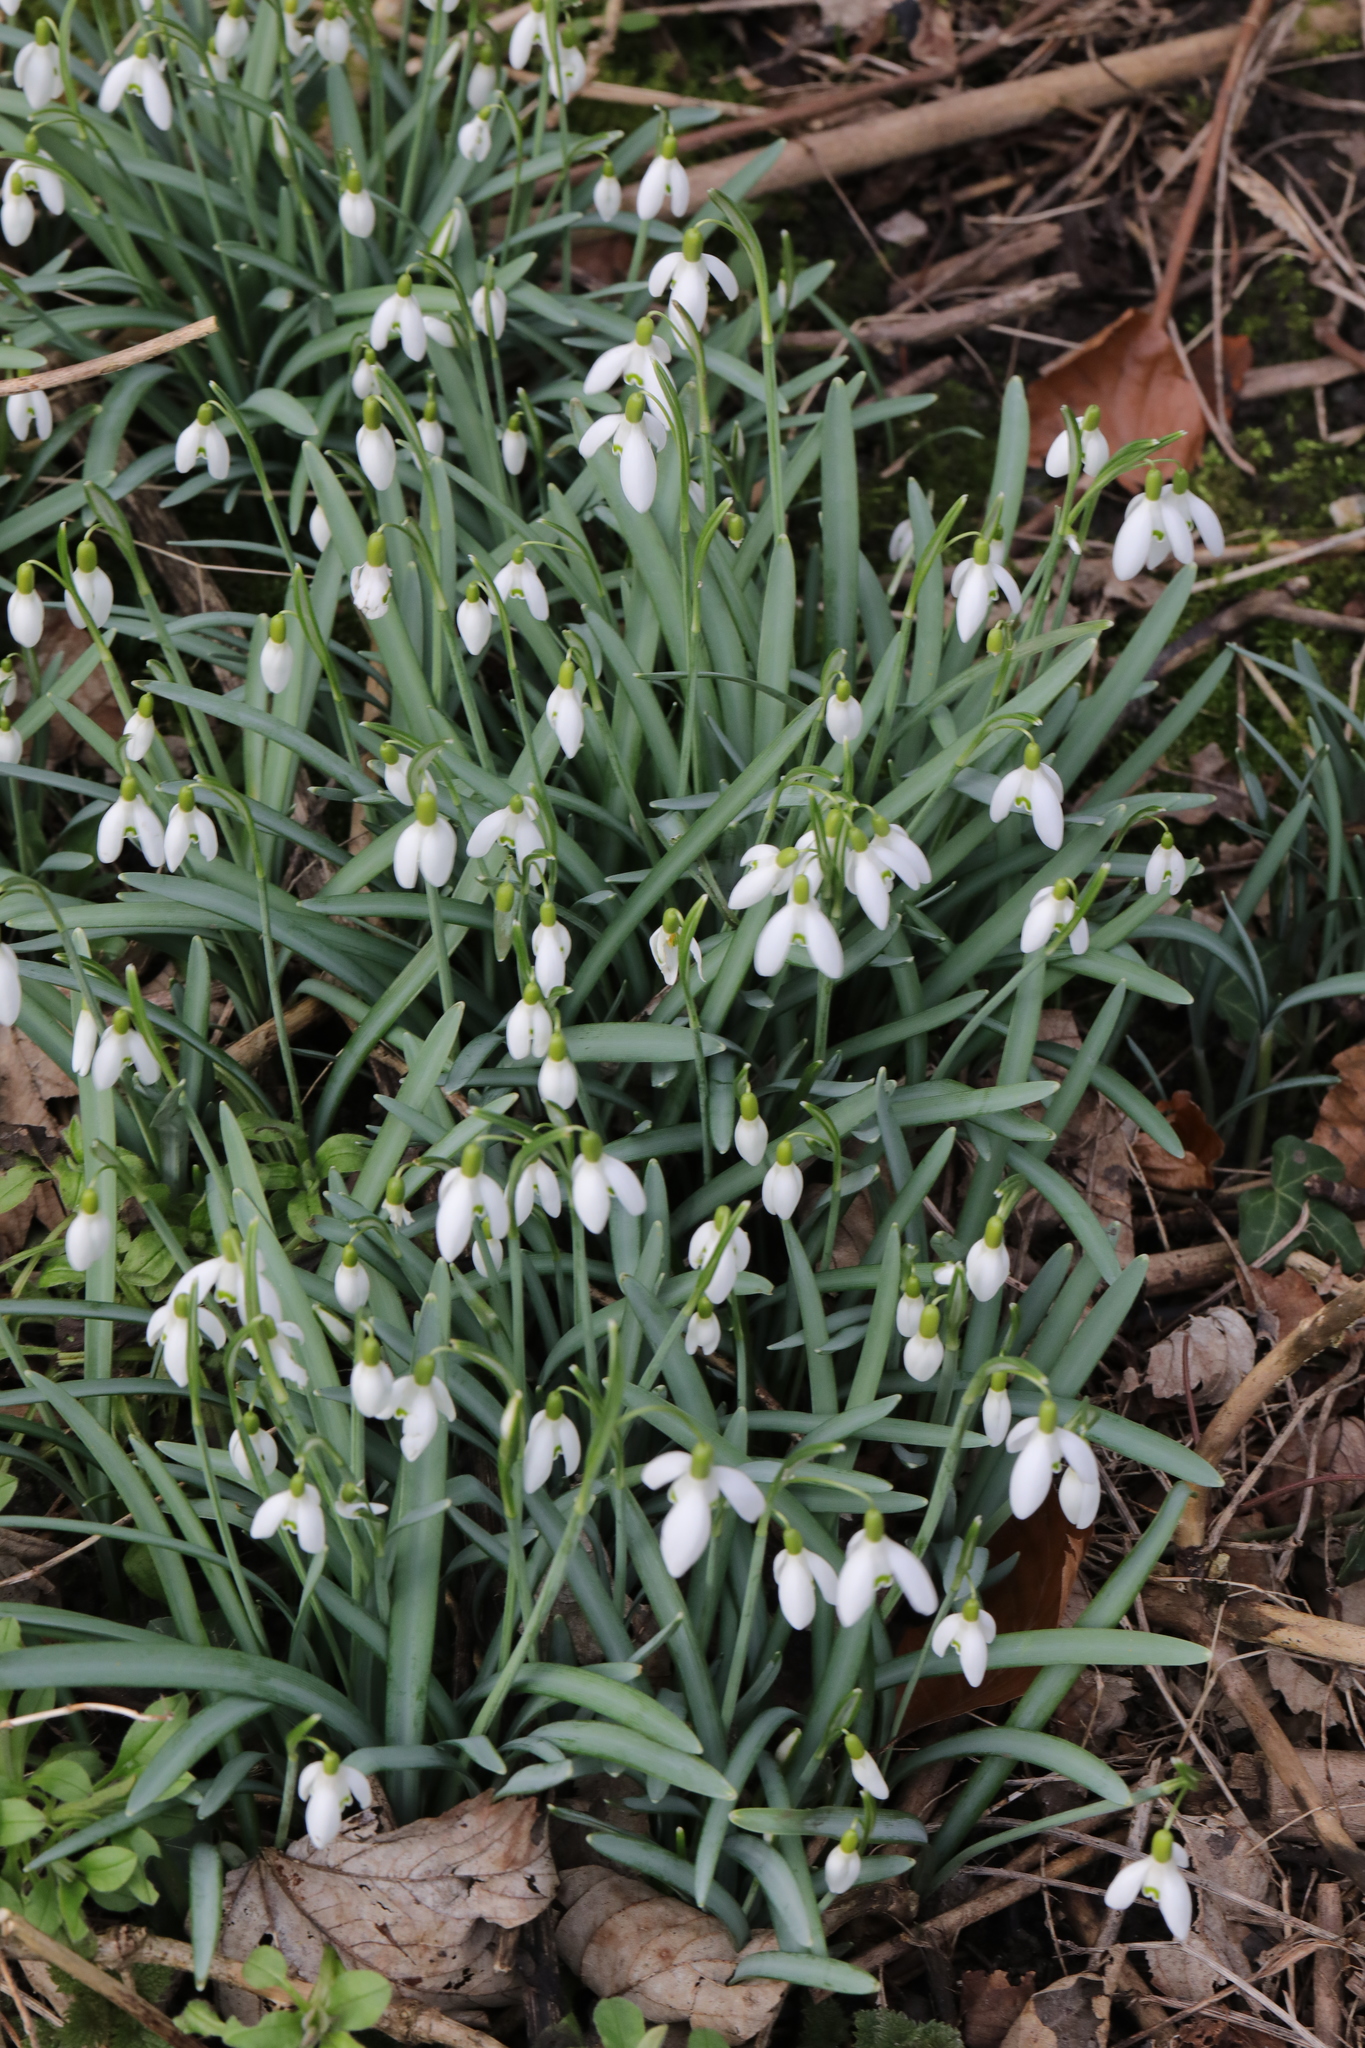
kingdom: Plantae
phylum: Tracheophyta
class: Liliopsida
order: Asparagales
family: Amaryllidaceae
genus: Galanthus
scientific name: Galanthus nivalis
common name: Snowdrop
